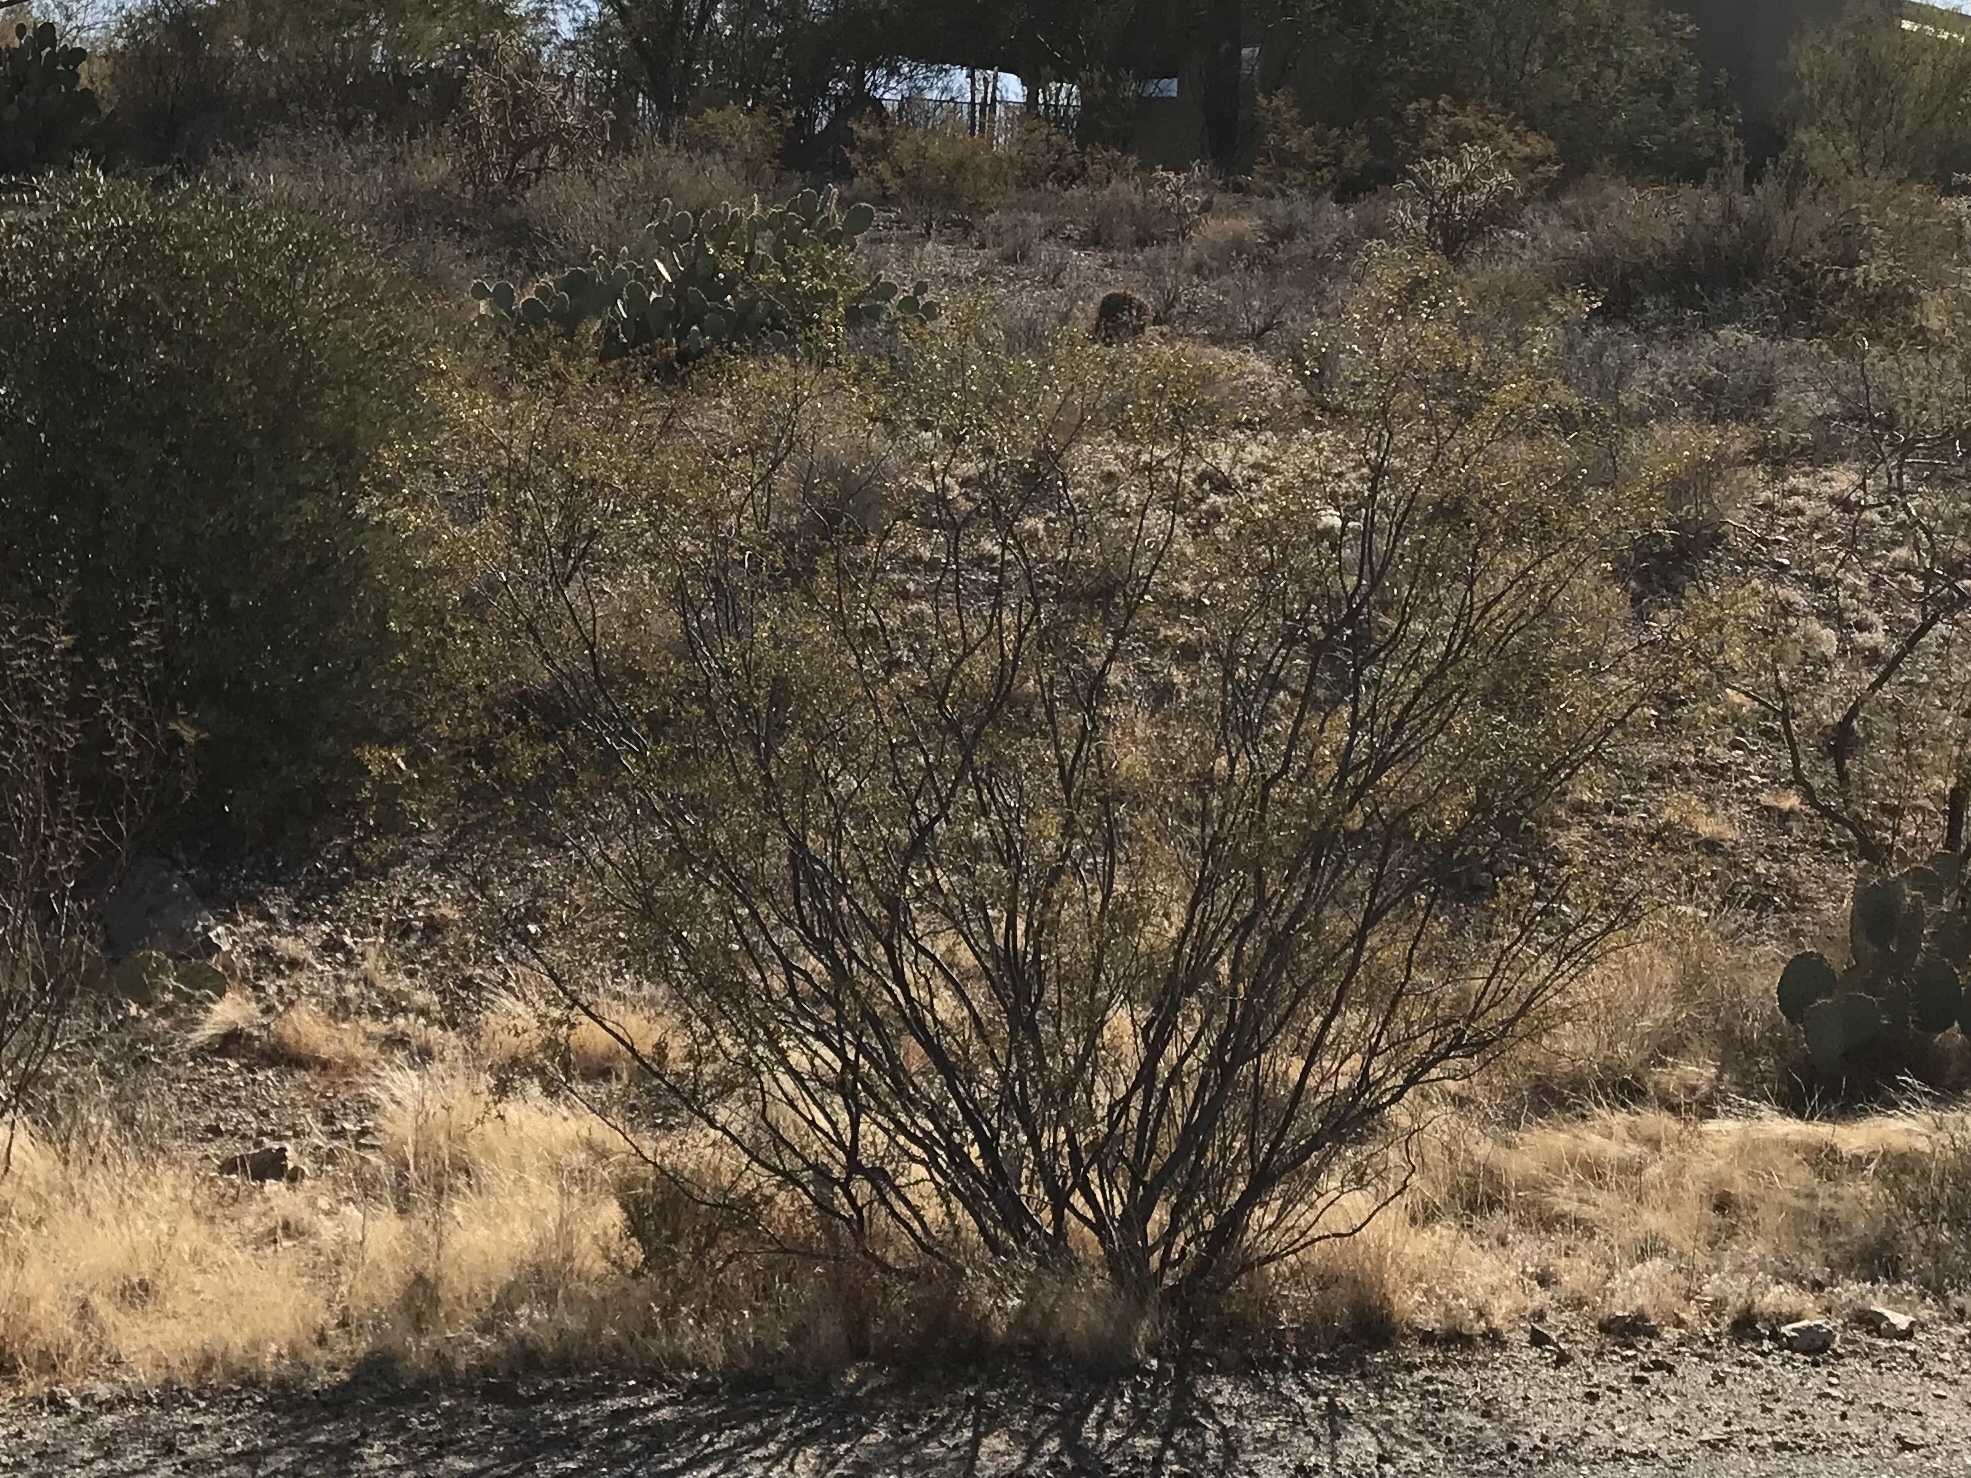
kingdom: Plantae
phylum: Tracheophyta
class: Magnoliopsida
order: Zygophyllales
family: Zygophyllaceae
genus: Larrea
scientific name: Larrea tridentata
